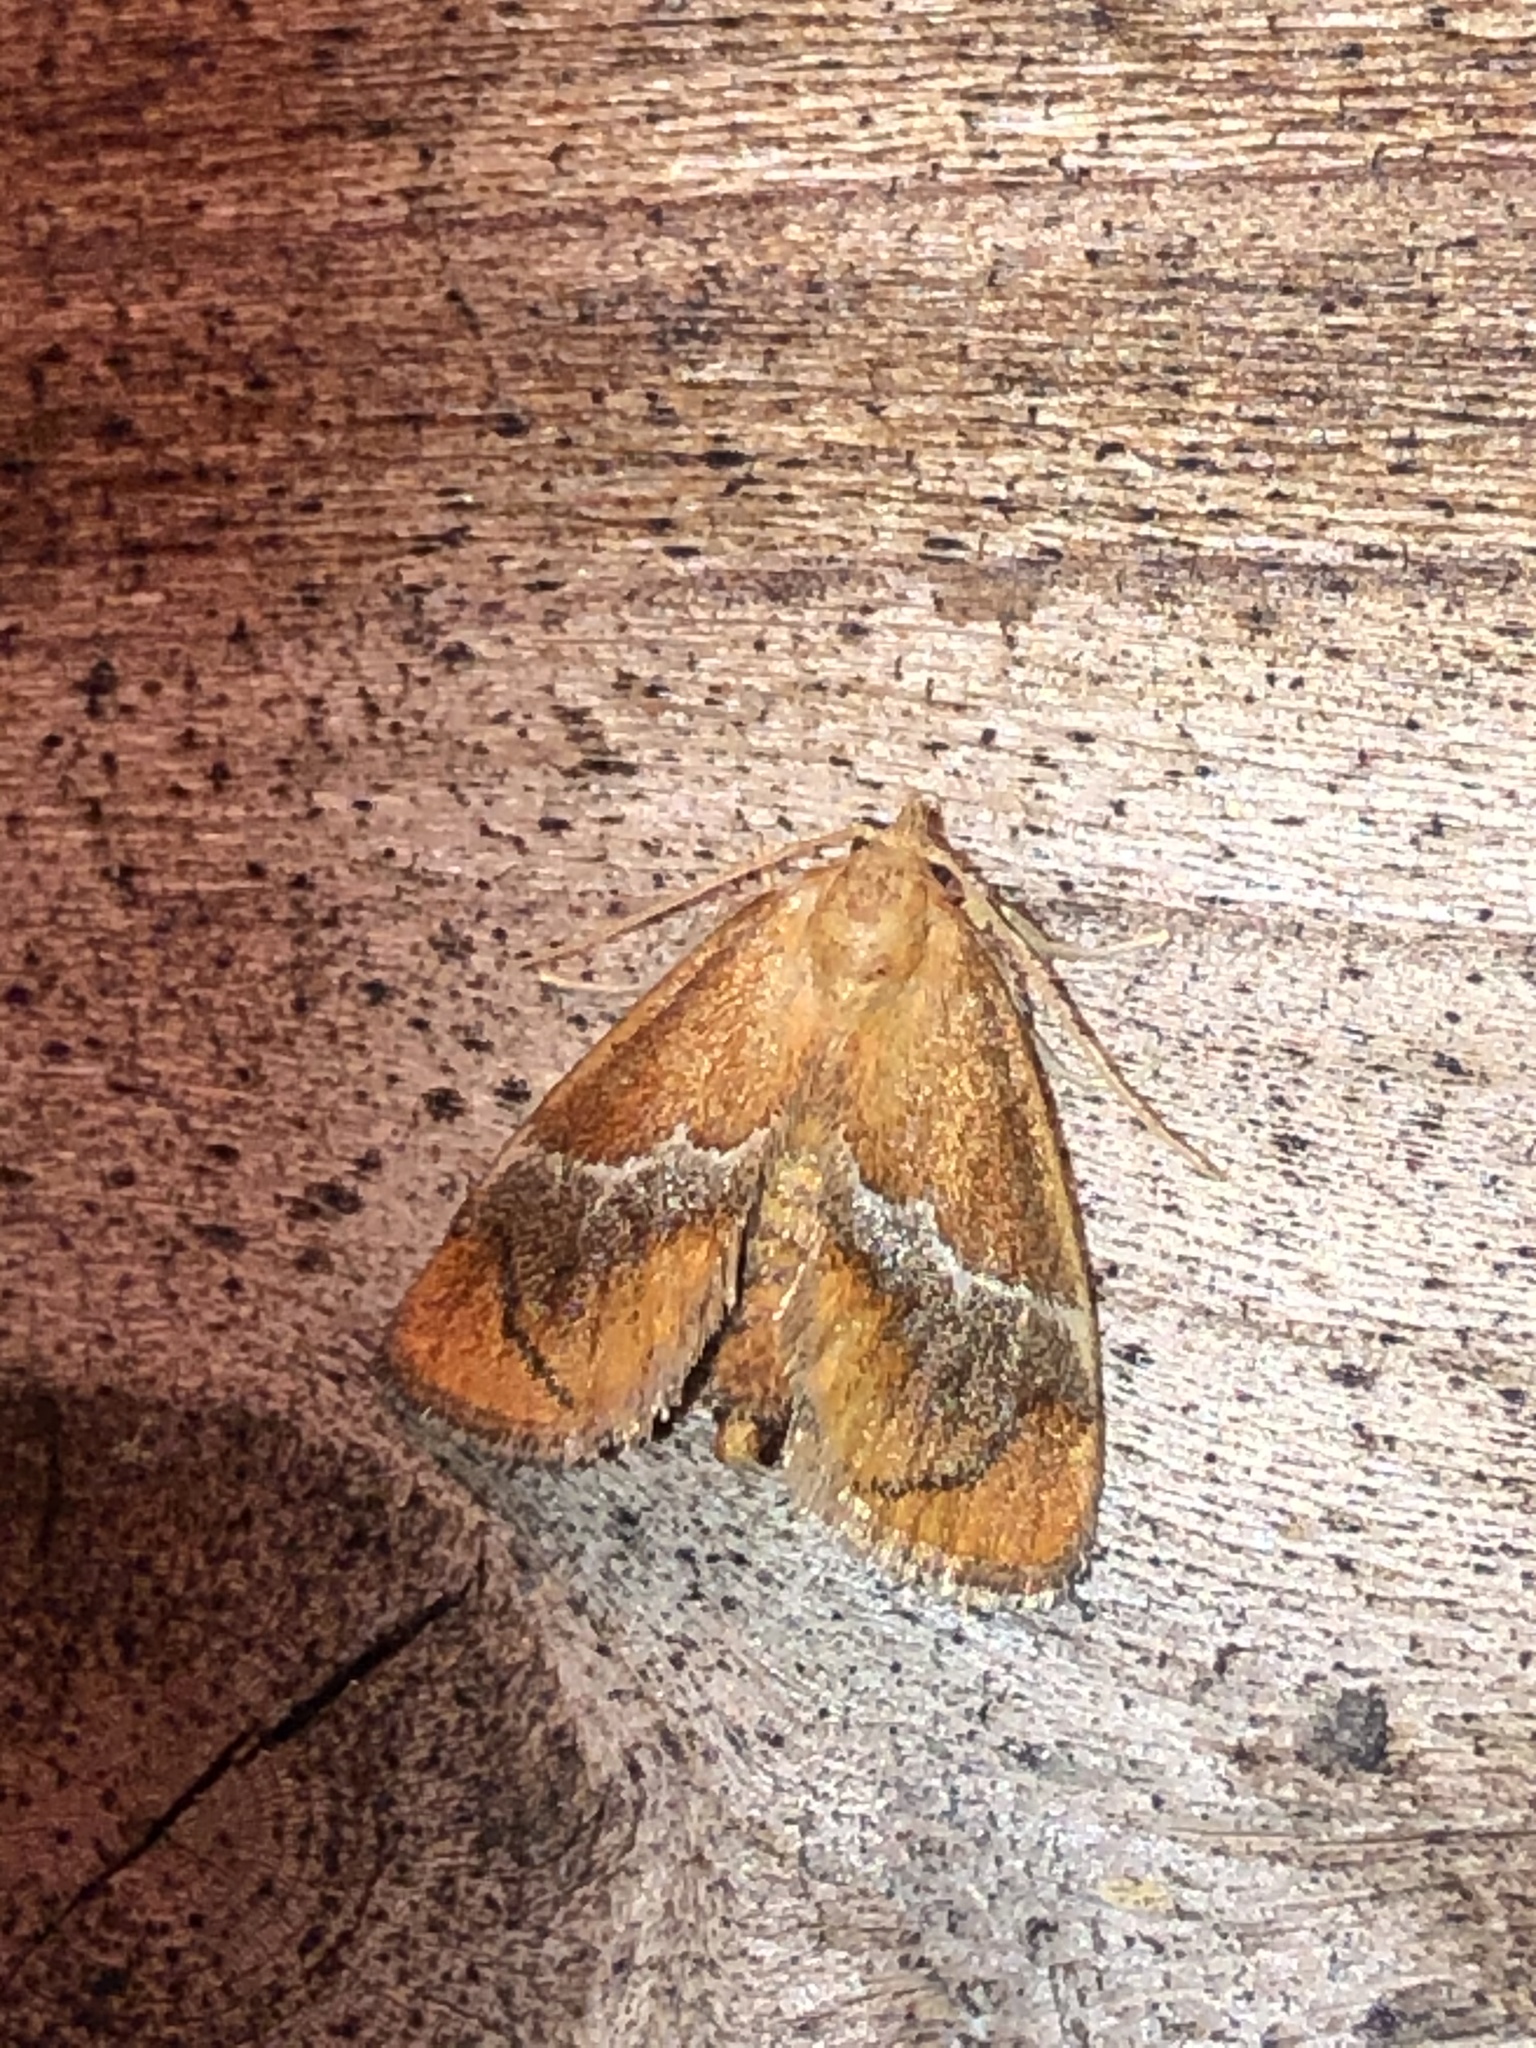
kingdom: Animalia
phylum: Arthropoda
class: Insecta
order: Lepidoptera
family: Limacodidae
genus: Lithacodes
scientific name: Lithacodes fasciola
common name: Yellow-shouldered slug moth
